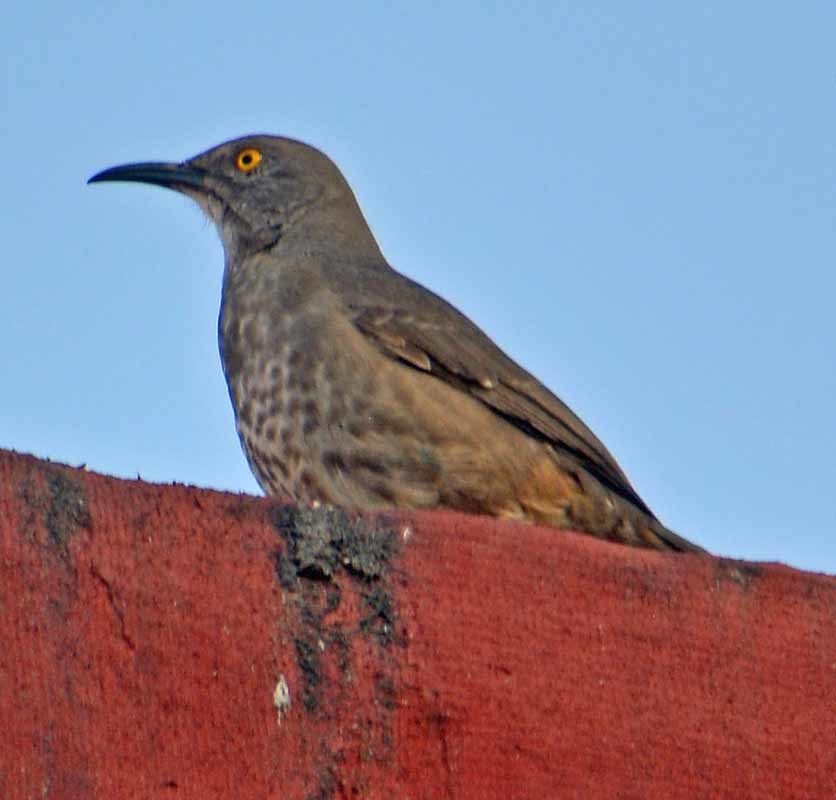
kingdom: Animalia
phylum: Chordata
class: Aves
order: Passeriformes
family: Mimidae
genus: Toxostoma
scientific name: Toxostoma curvirostre
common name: Curve-billed thrasher
